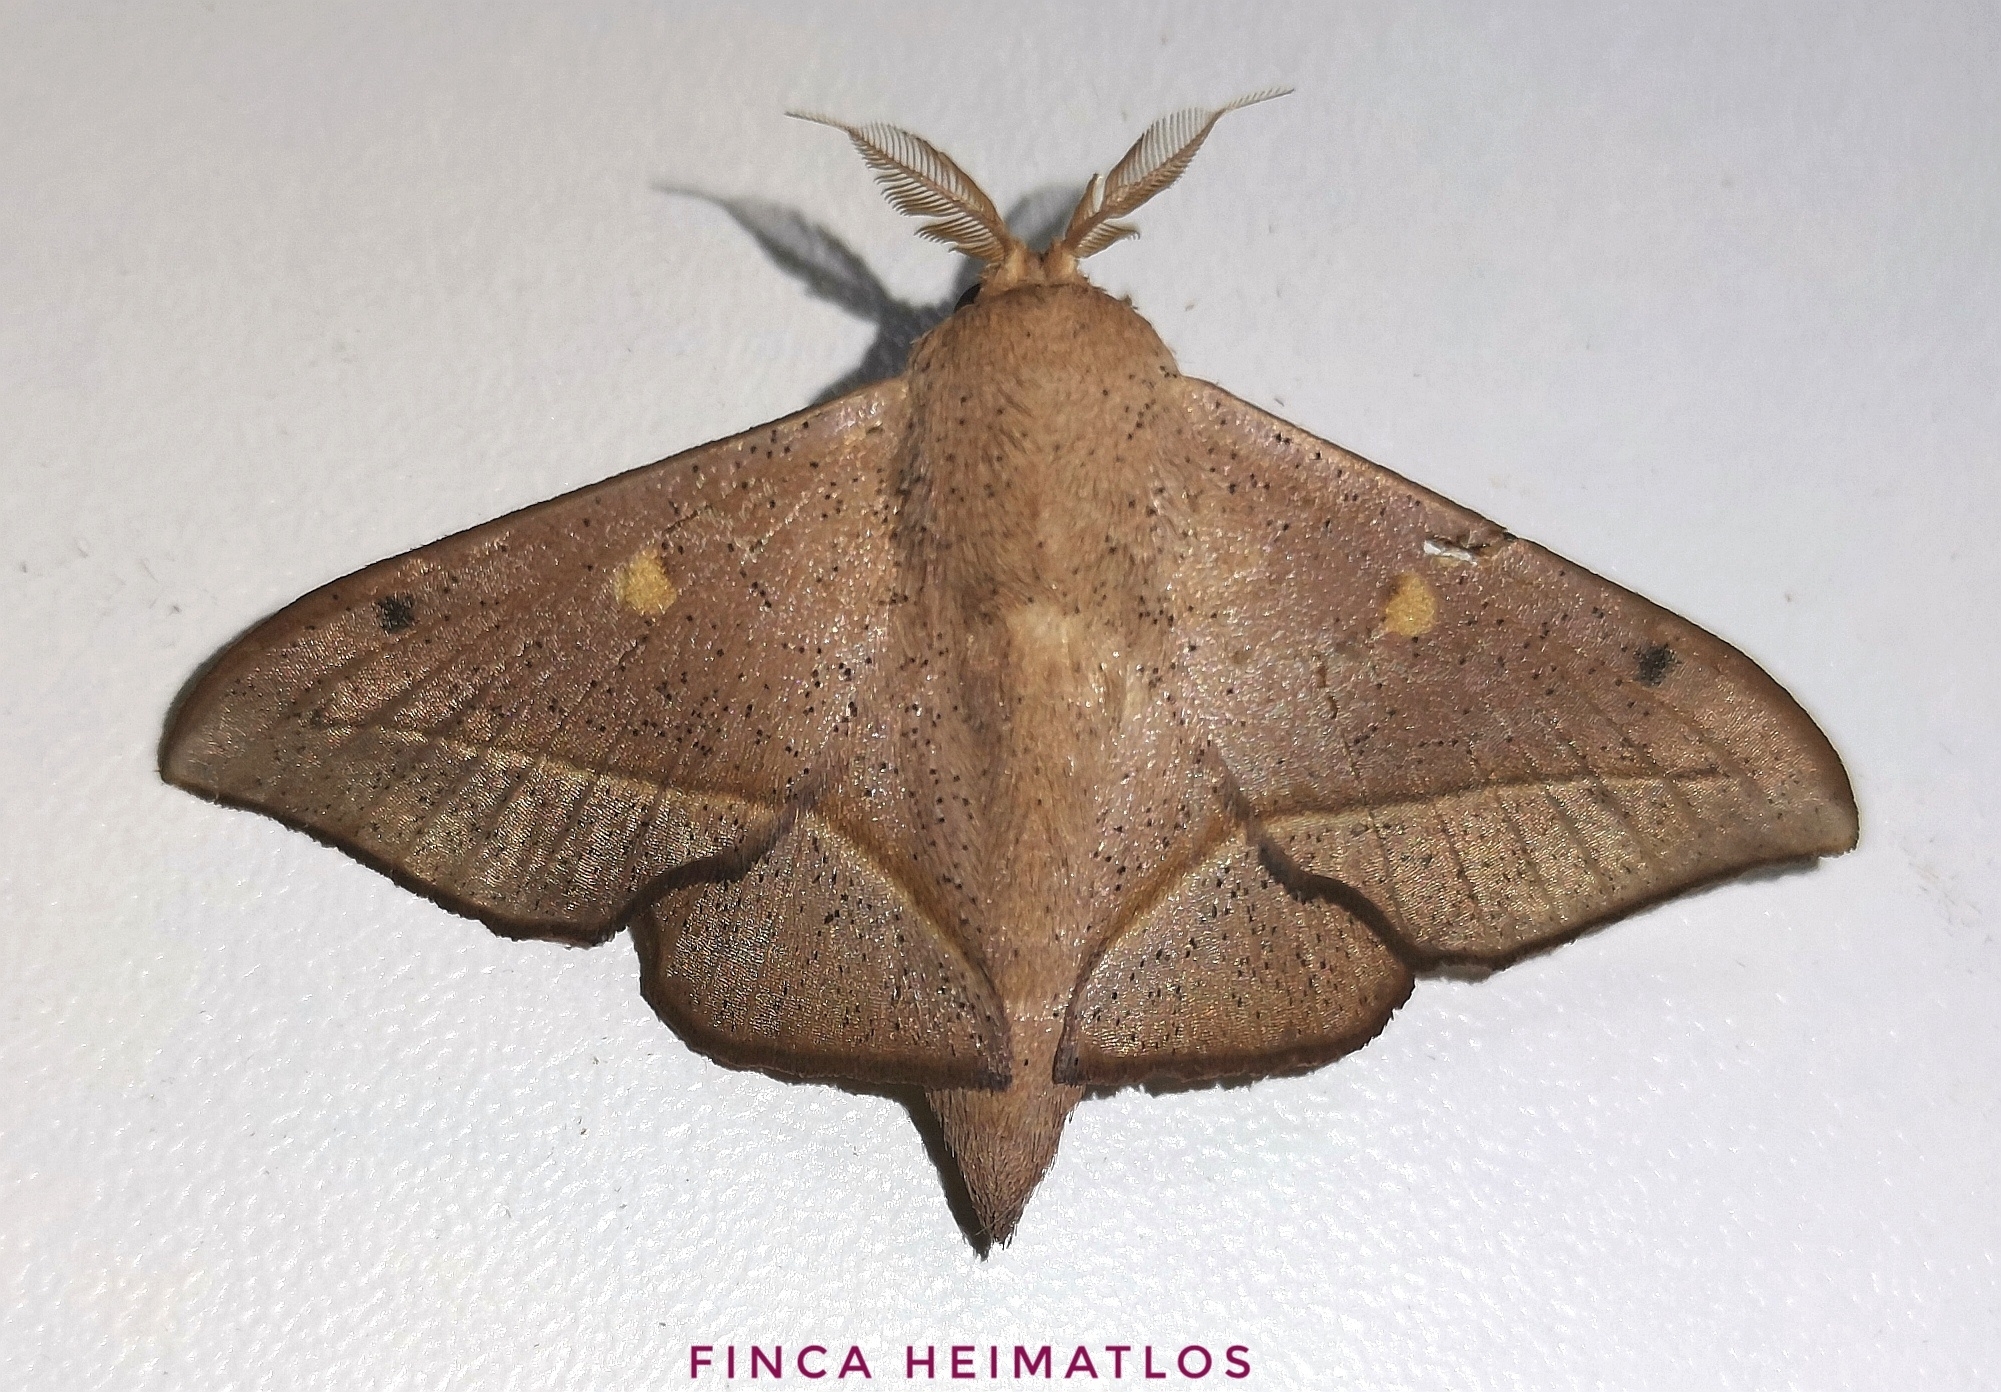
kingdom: Animalia
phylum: Arthropoda
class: Insecta
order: Lepidoptera
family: Mimallonidae
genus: Druentica
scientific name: Druentica partha
